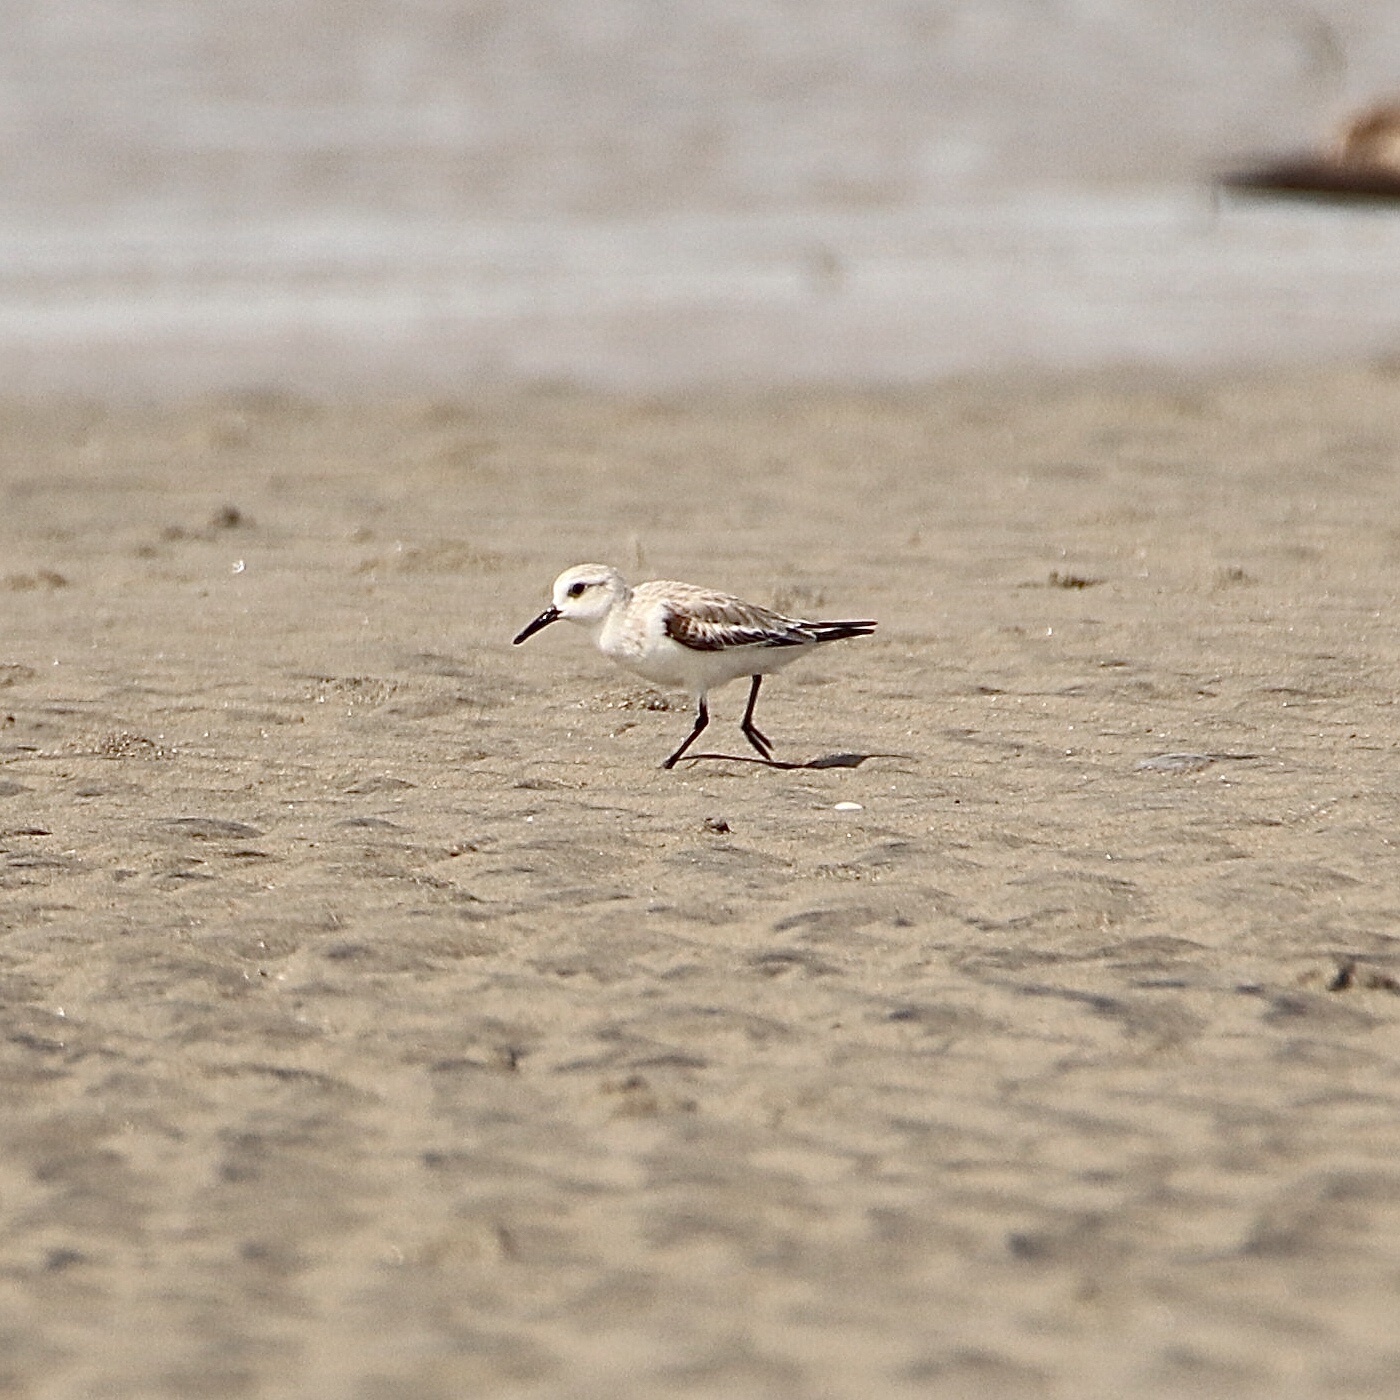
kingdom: Animalia
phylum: Chordata
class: Aves
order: Charadriiformes
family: Scolopacidae
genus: Calidris
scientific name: Calidris alba
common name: Sanderling
